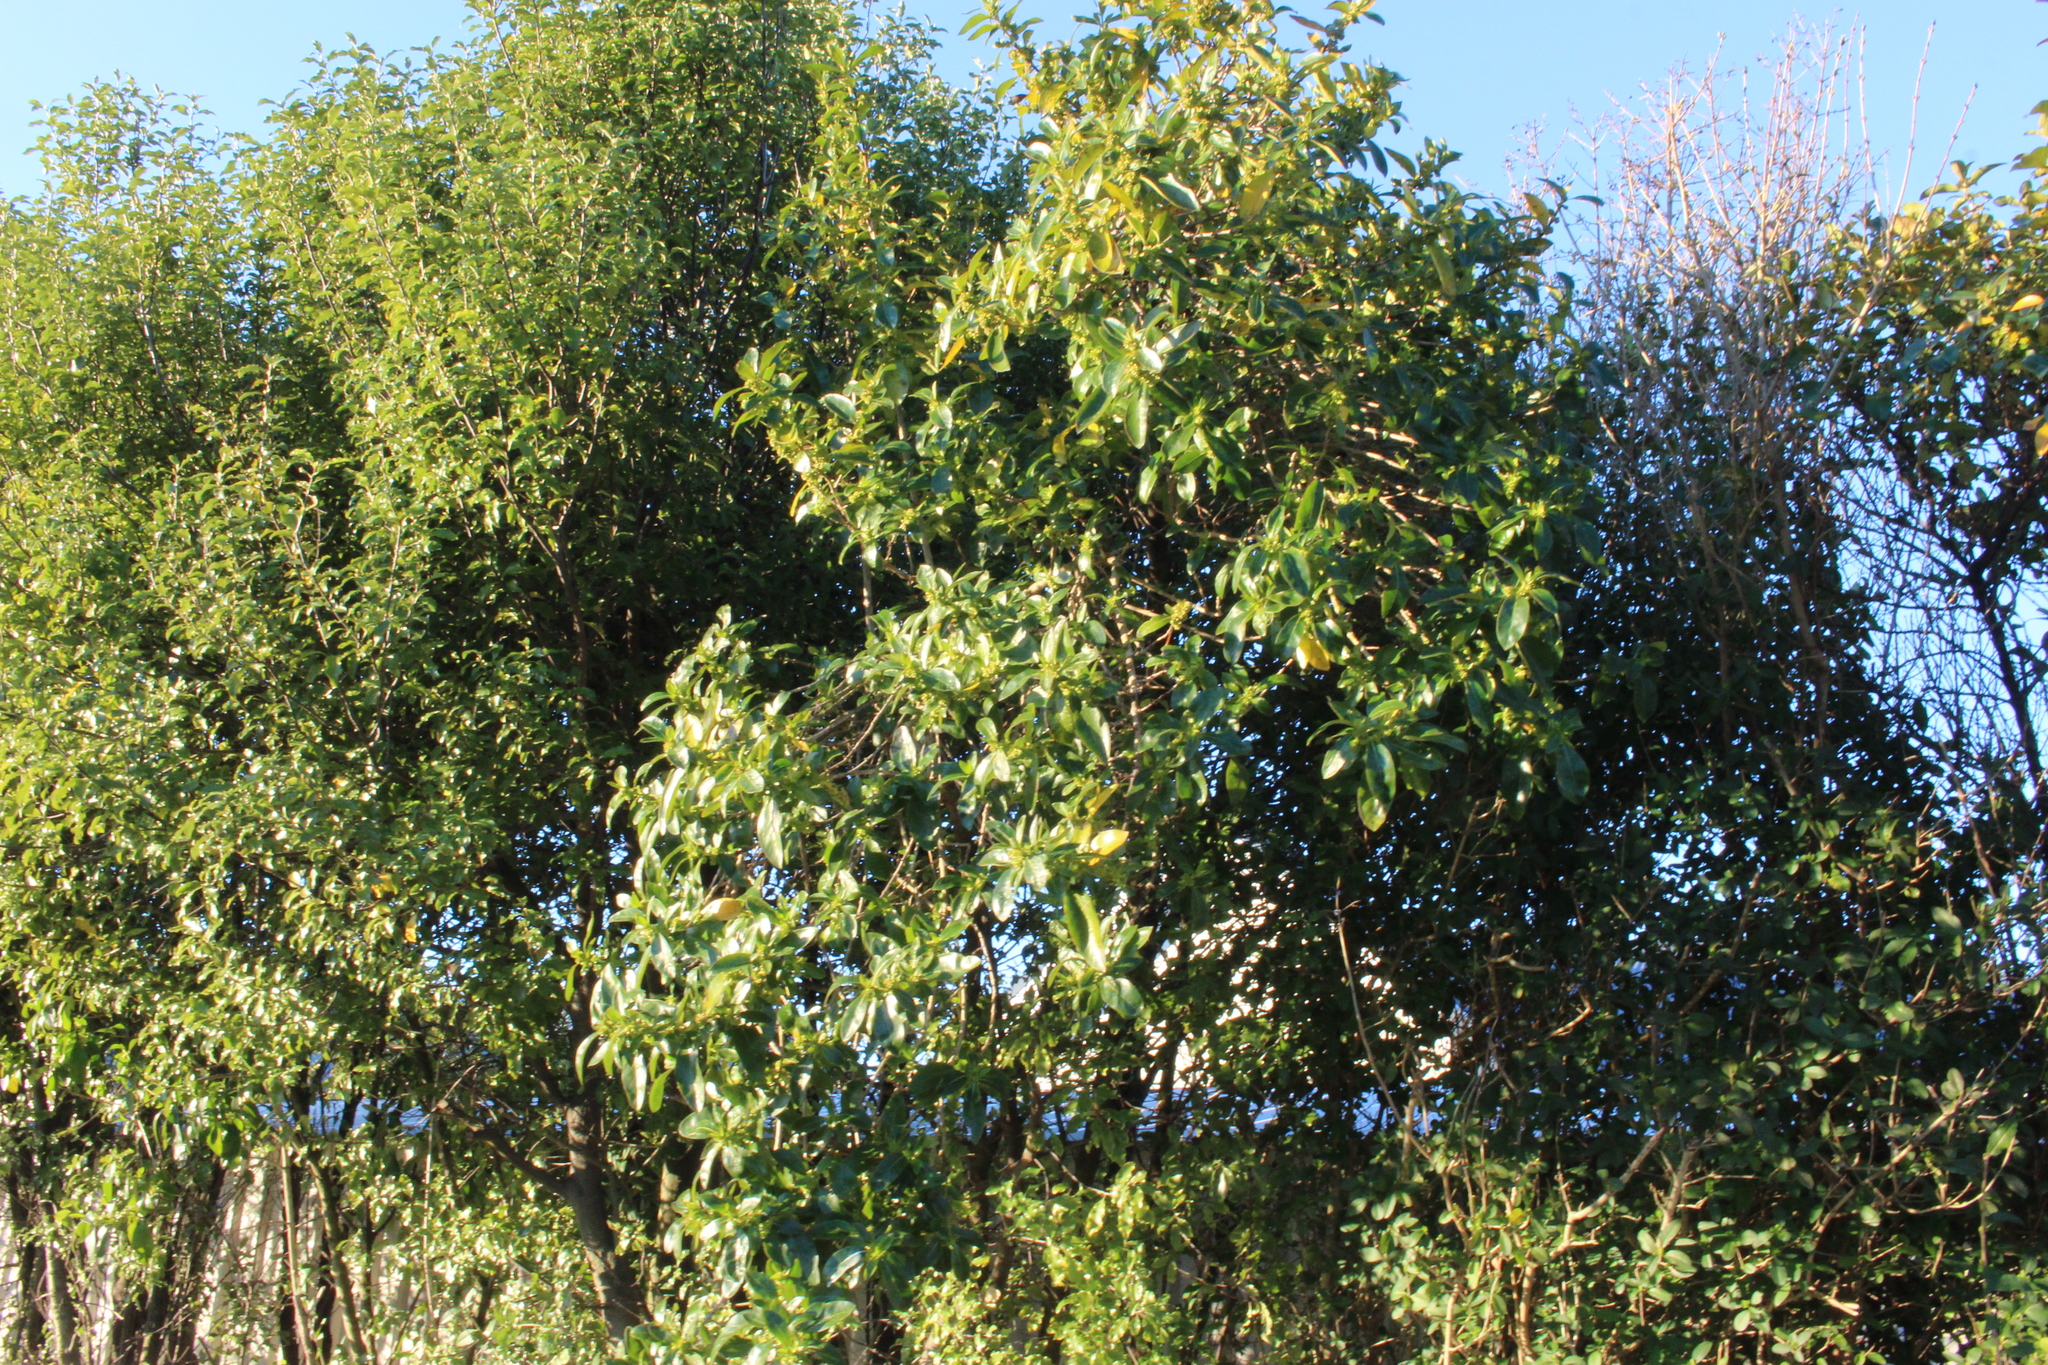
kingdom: Plantae
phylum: Tracheophyta
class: Magnoliopsida
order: Gentianales
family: Rubiaceae
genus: Coprosma
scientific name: Coprosma robusta
